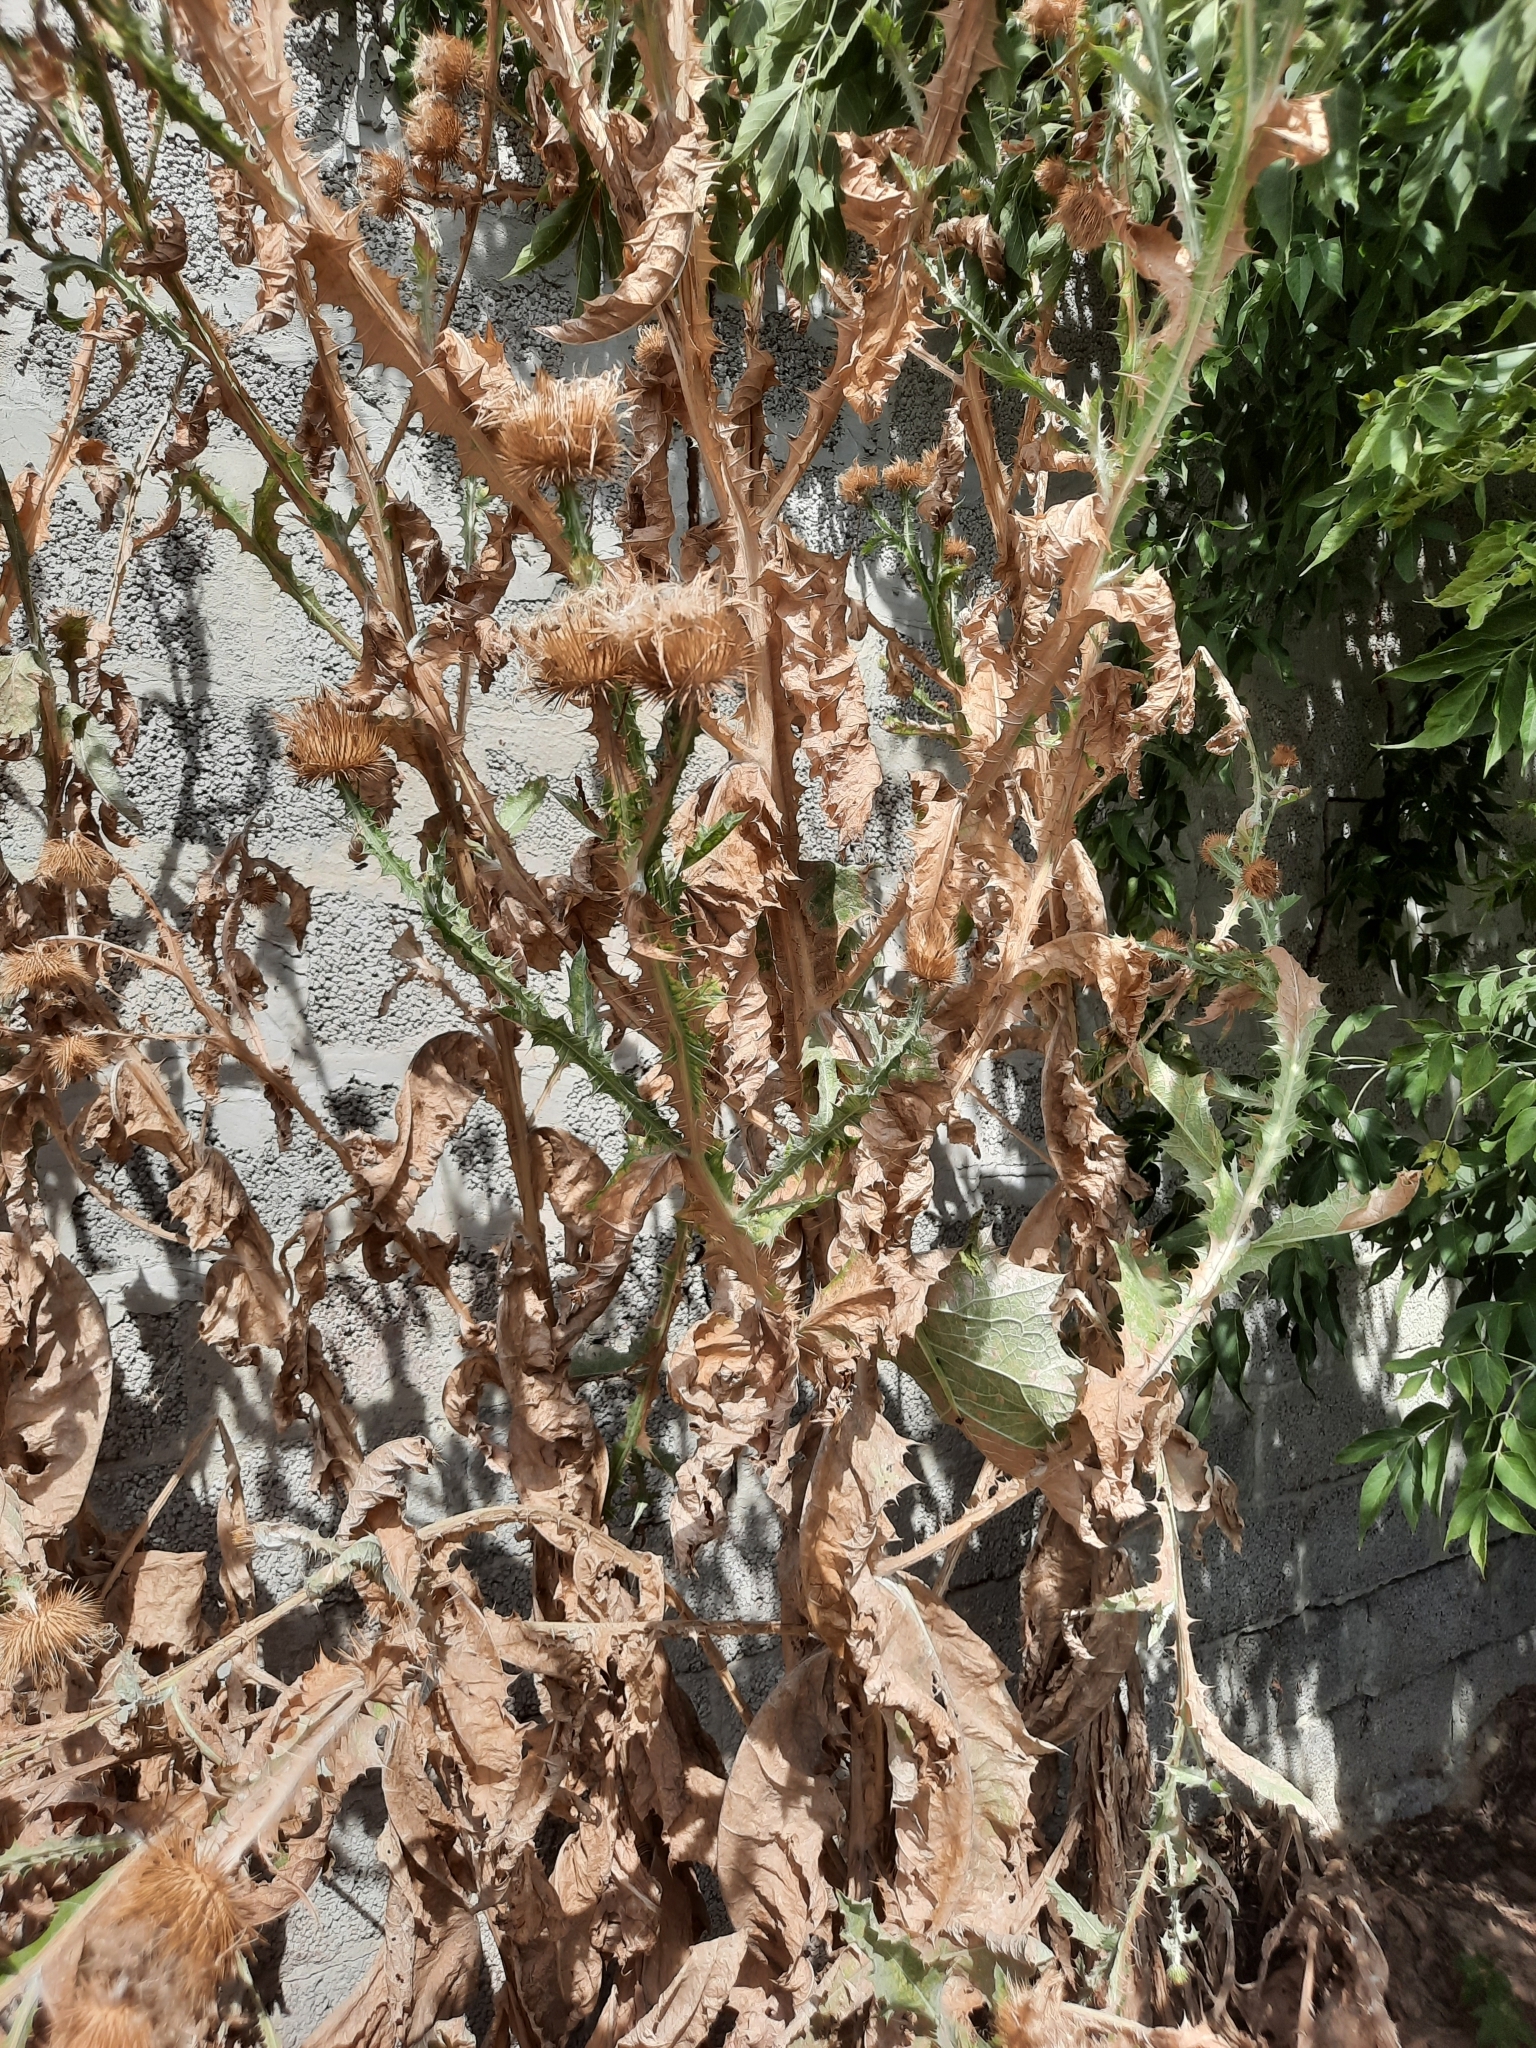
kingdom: Plantae
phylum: Tracheophyta
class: Magnoliopsida
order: Asterales
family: Asteraceae
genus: Onopordum
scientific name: Onopordum acanthium
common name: Scotch thistle
